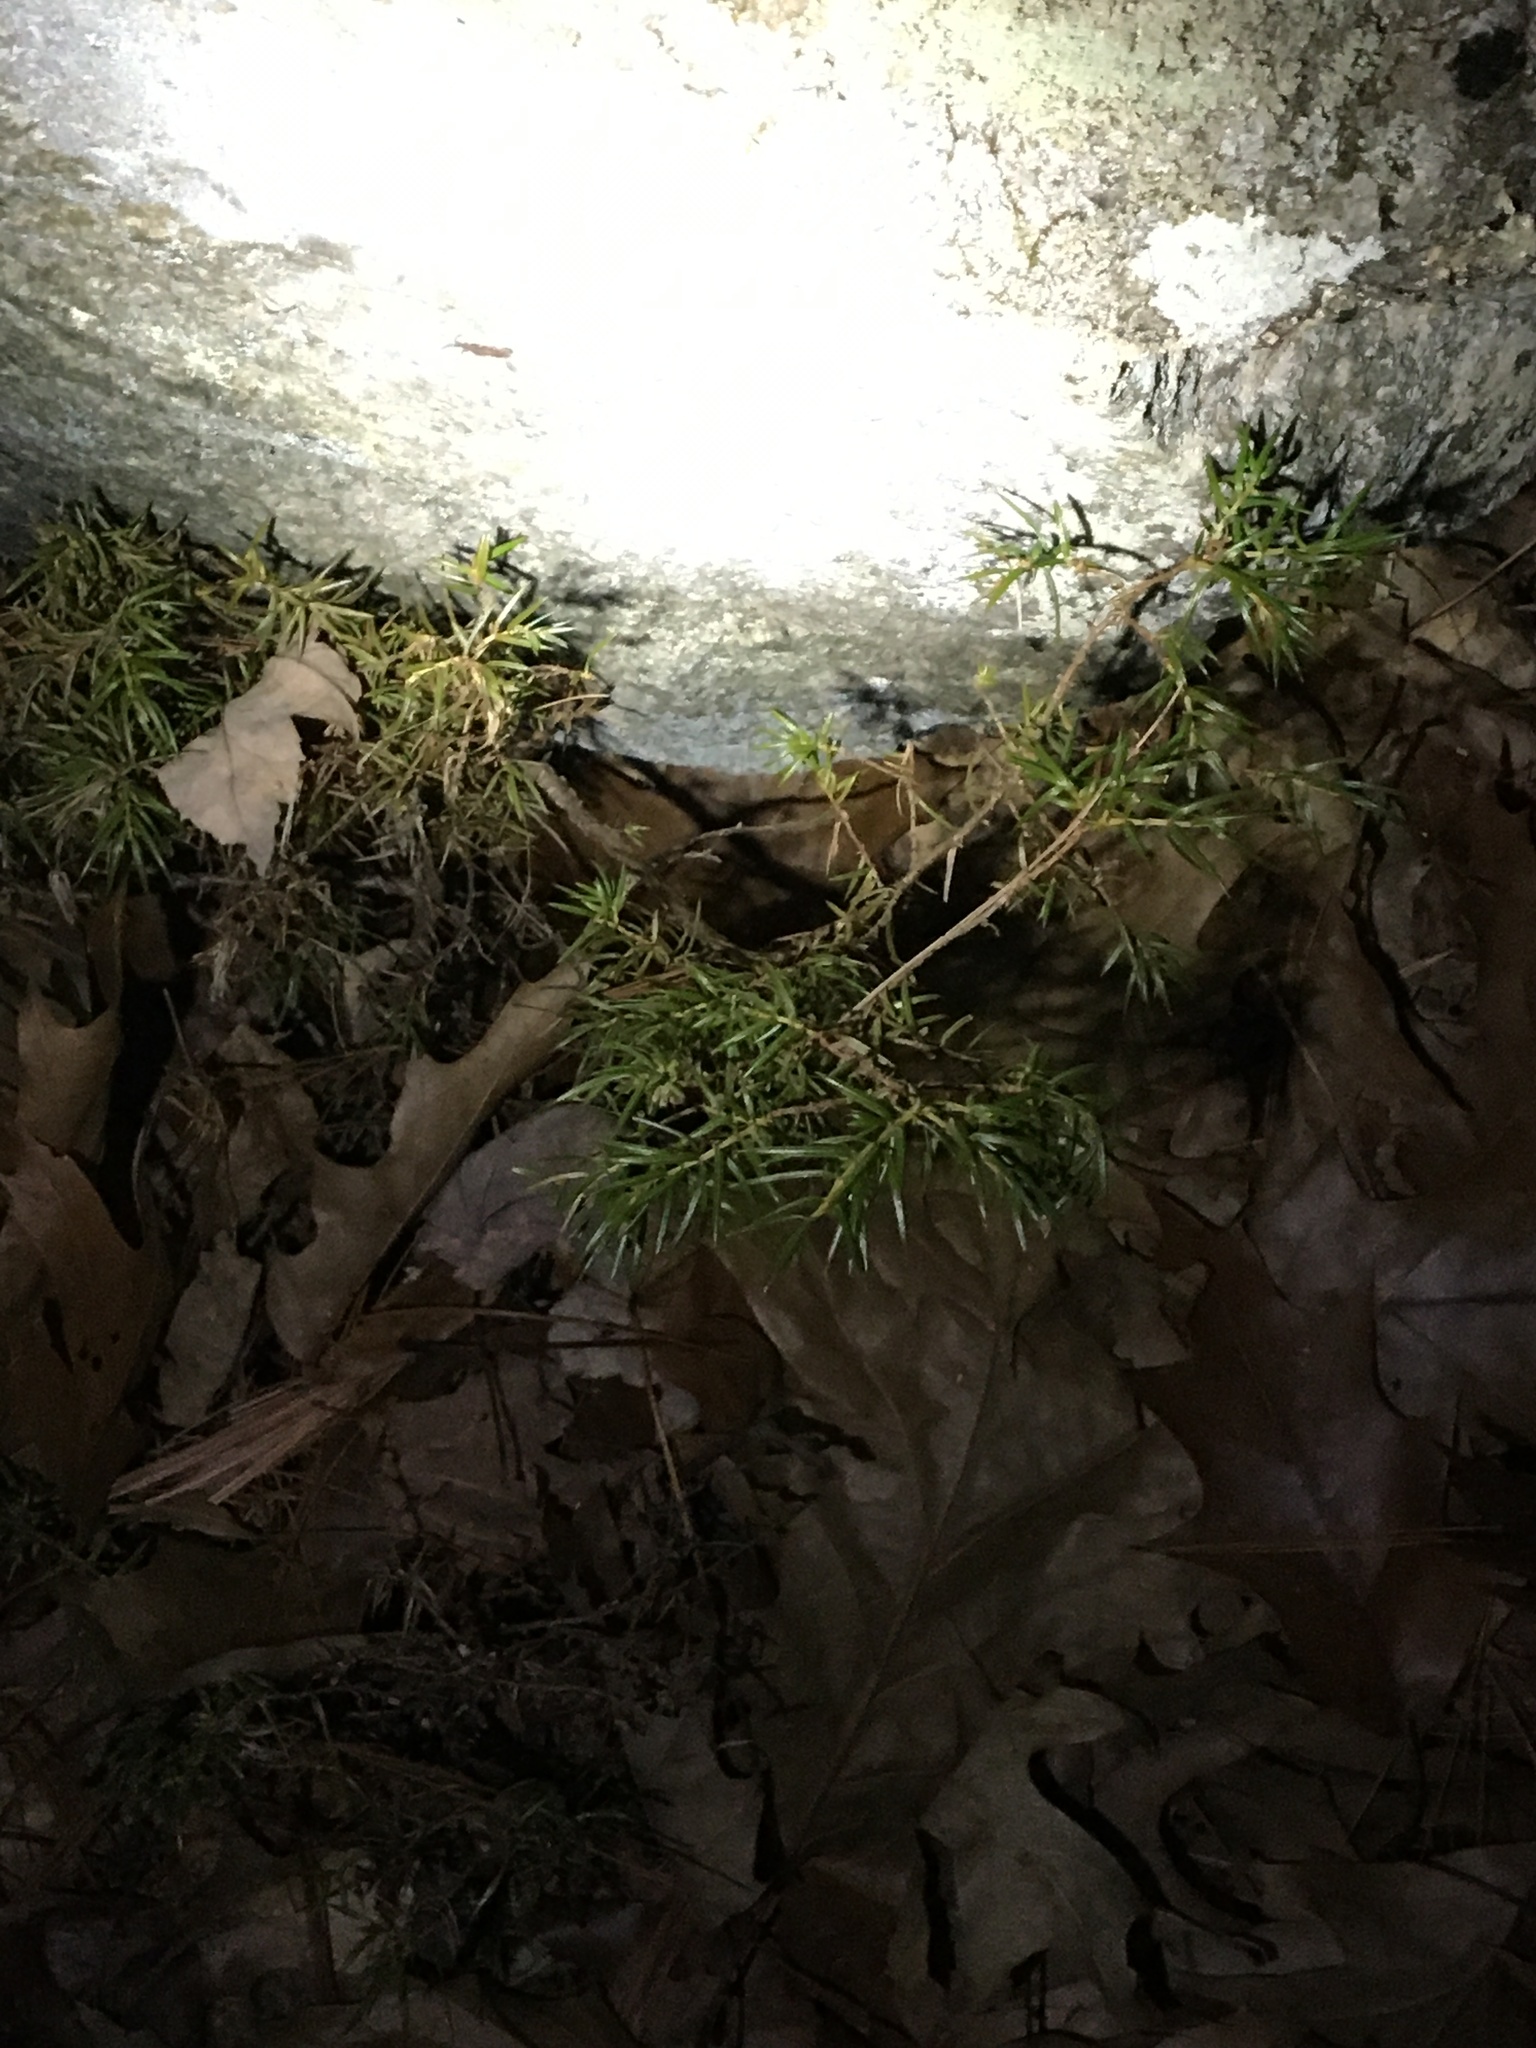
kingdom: Plantae
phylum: Tracheophyta
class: Pinopsida
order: Pinales
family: Cupressaceae
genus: Juniperus
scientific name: Juniperus communis
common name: Common juniper
